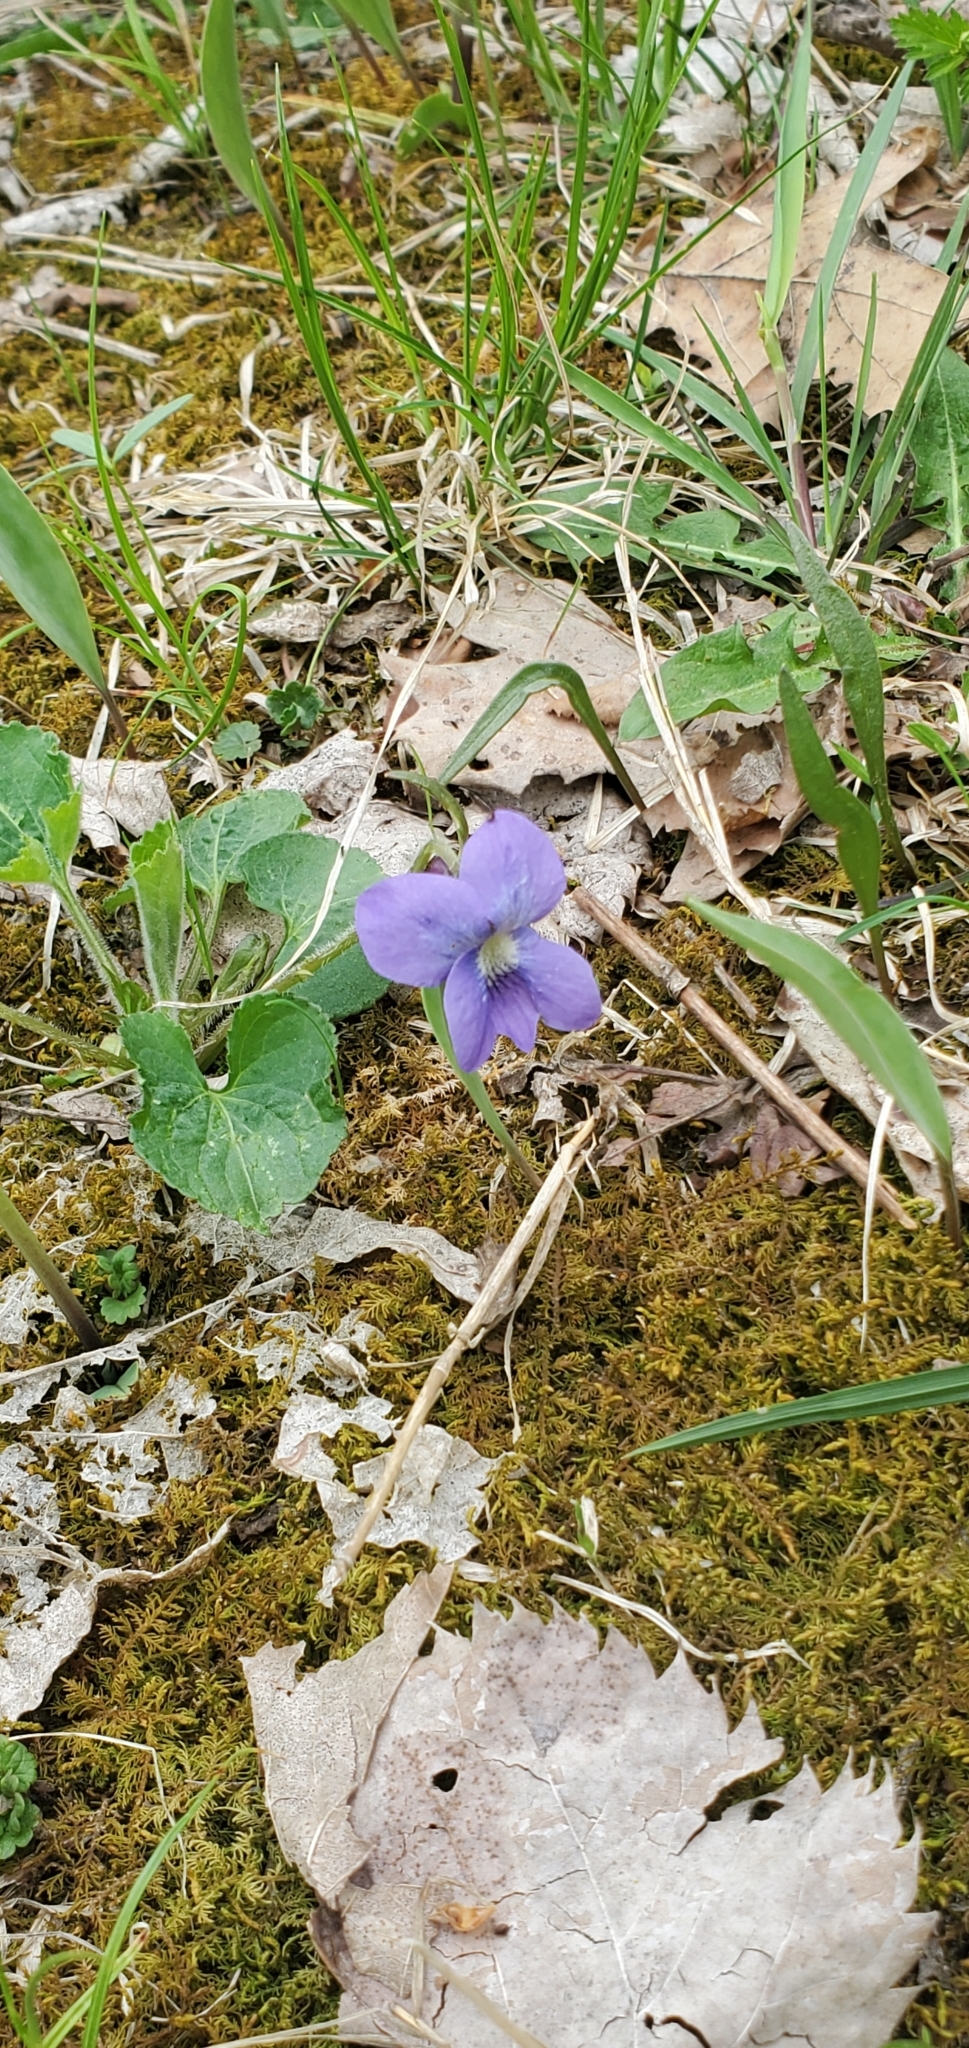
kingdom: Plantae
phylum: Tracheophyta
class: Magnoliopsida
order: Malpighiales
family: Violaceae
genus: Viola
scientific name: Viola sororia
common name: Dooryard violet
